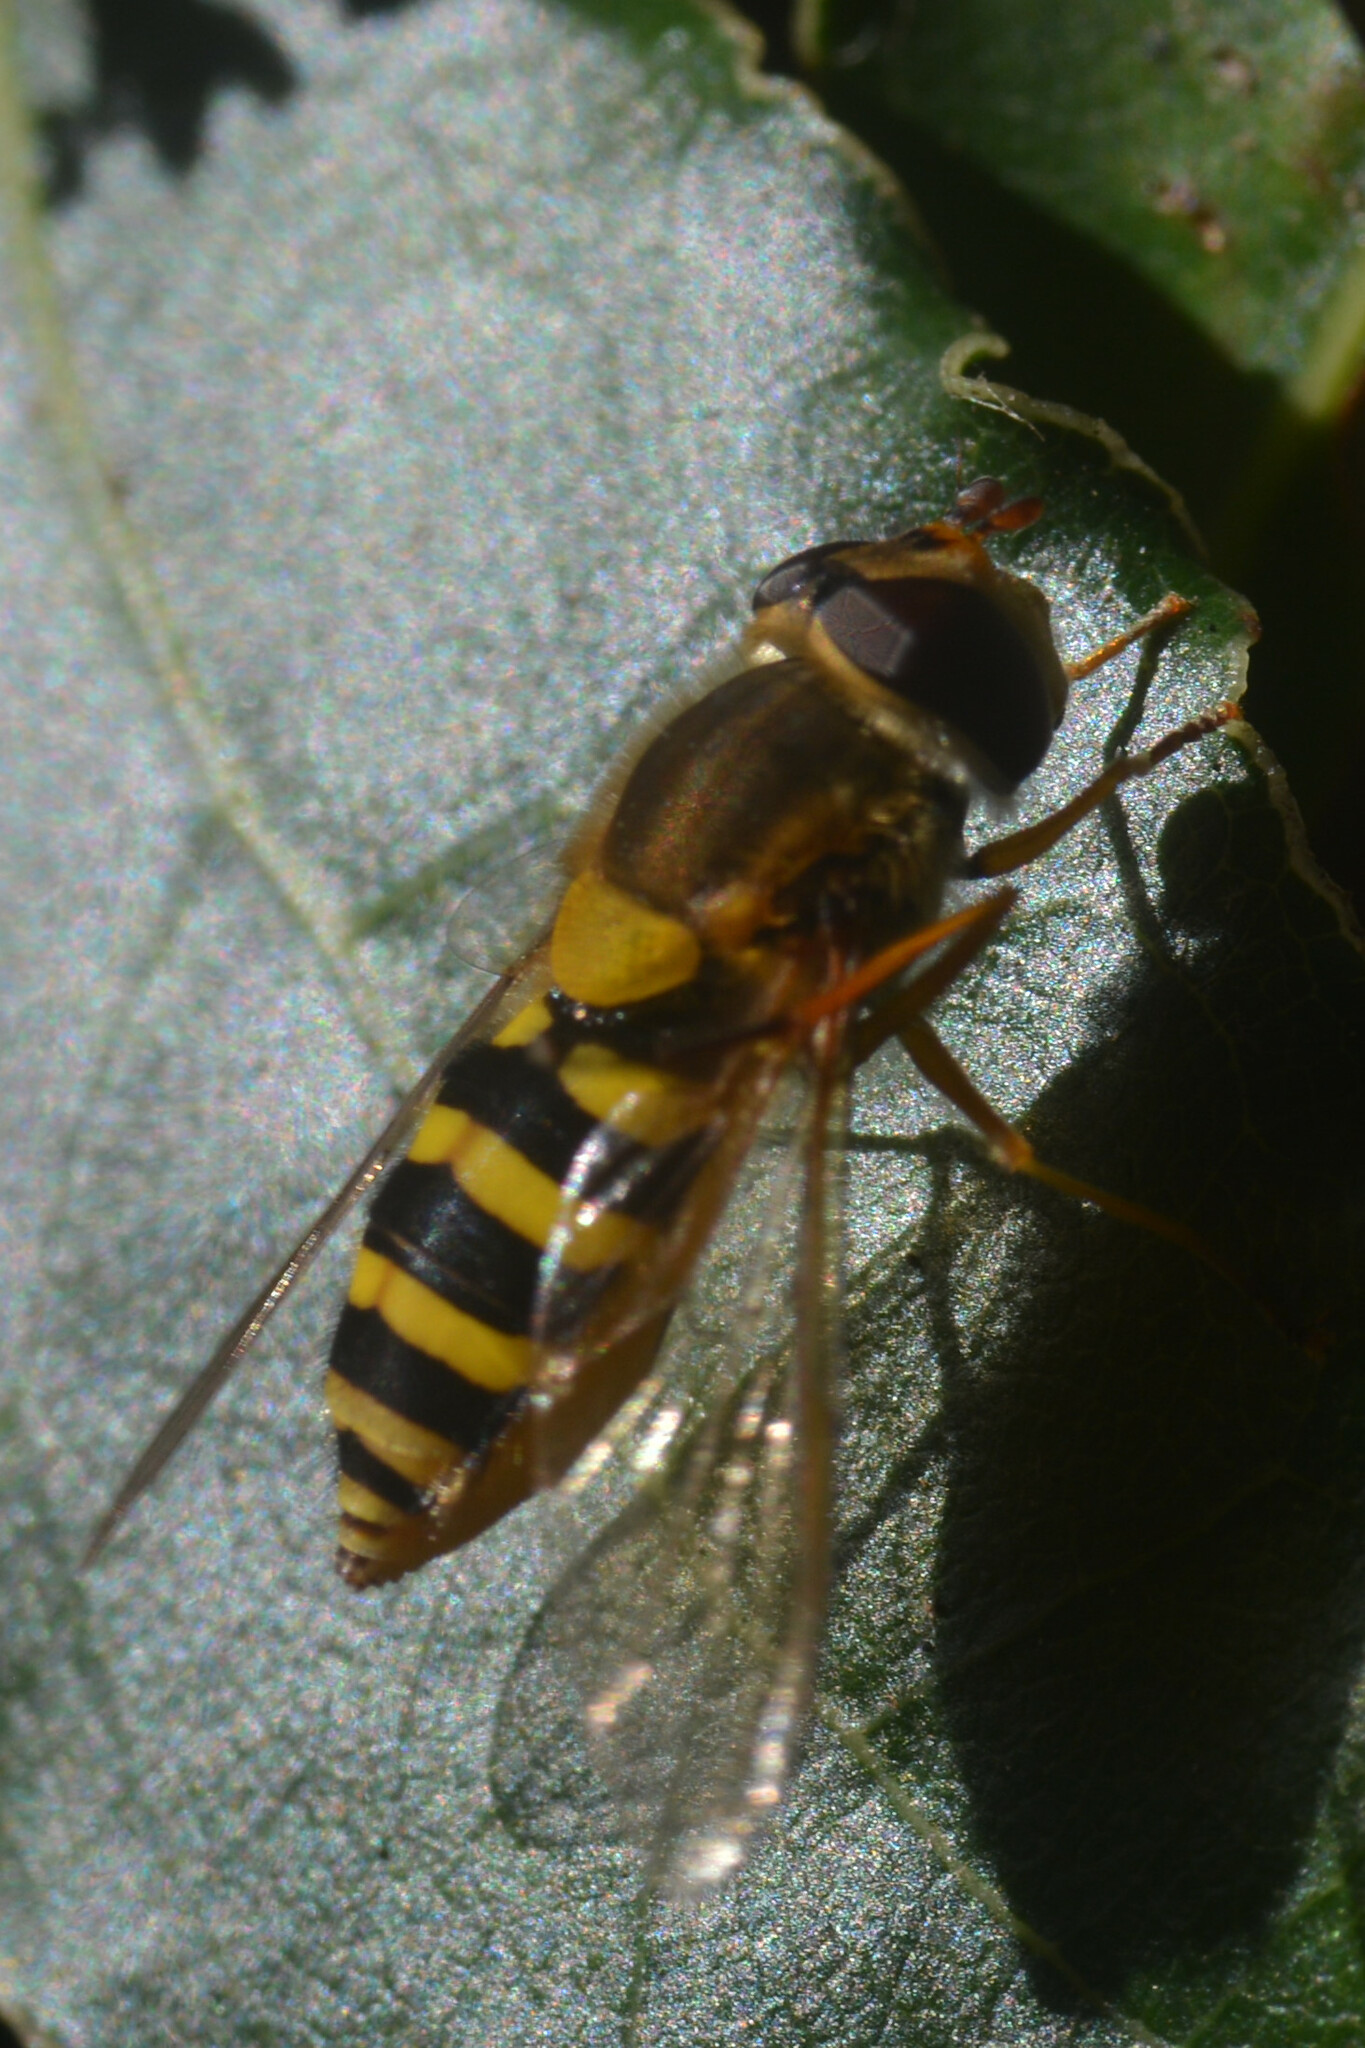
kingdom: Animalia
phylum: Arthropoda
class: Insecta
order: Diptera
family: Syrphidae
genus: Syrphus
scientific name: Syrphus ribesii
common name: Common flower fly
